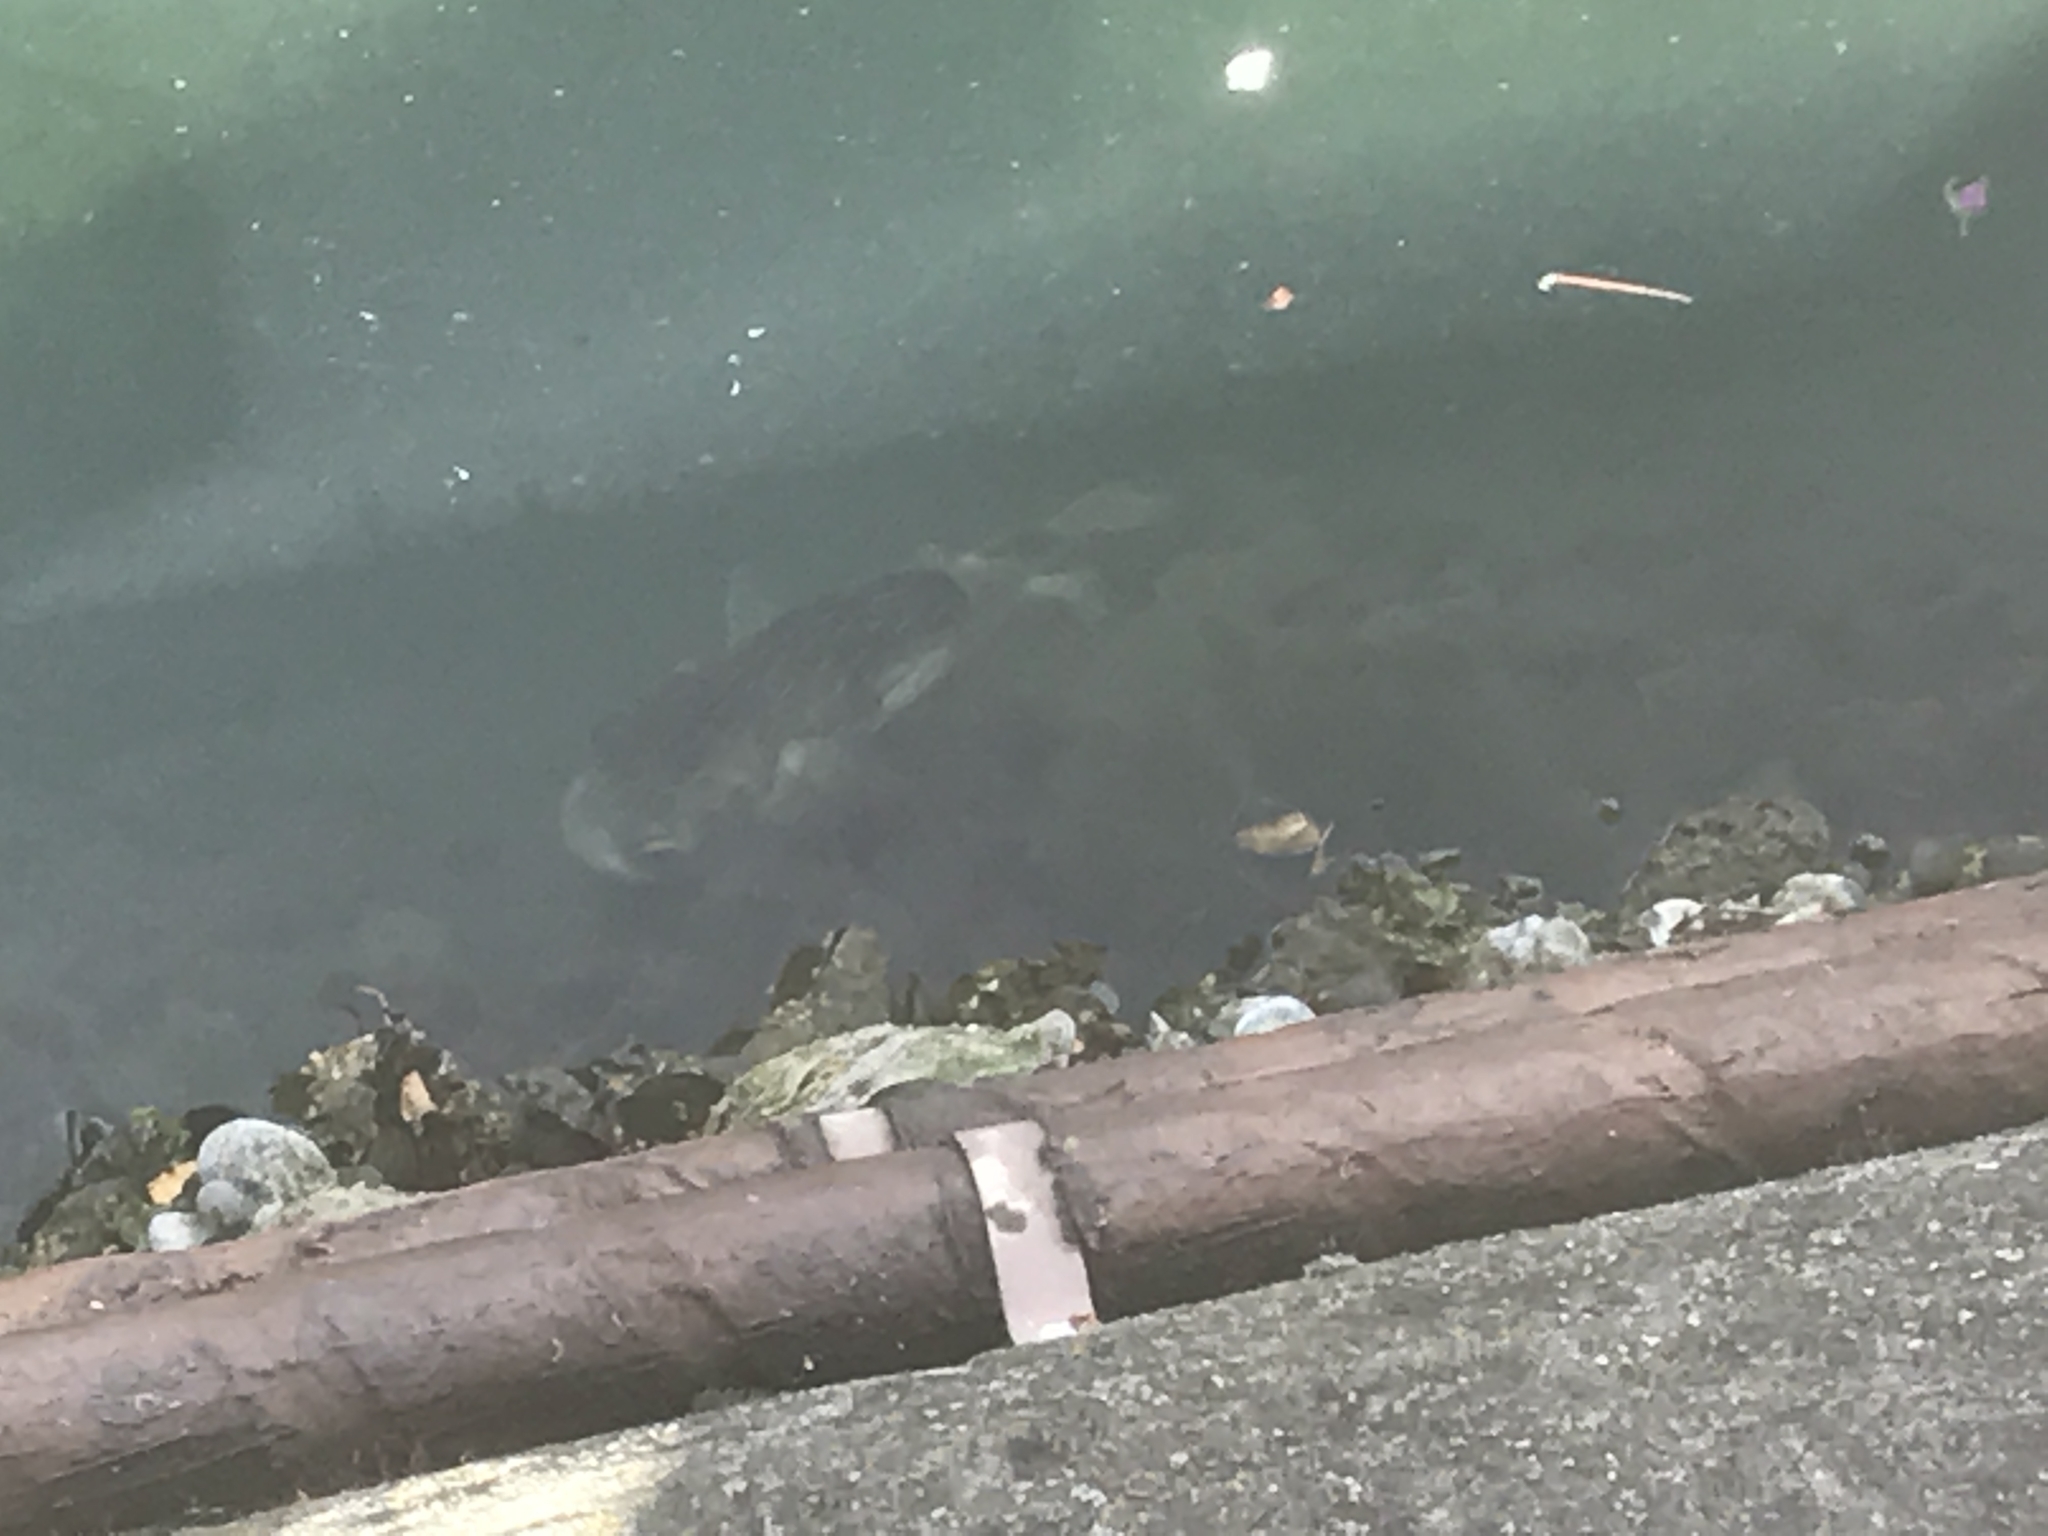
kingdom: Animalia
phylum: Chordata
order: Tetraodontiformes
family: Diodontidae
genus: Diodon
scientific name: Diodon nicthemerus
